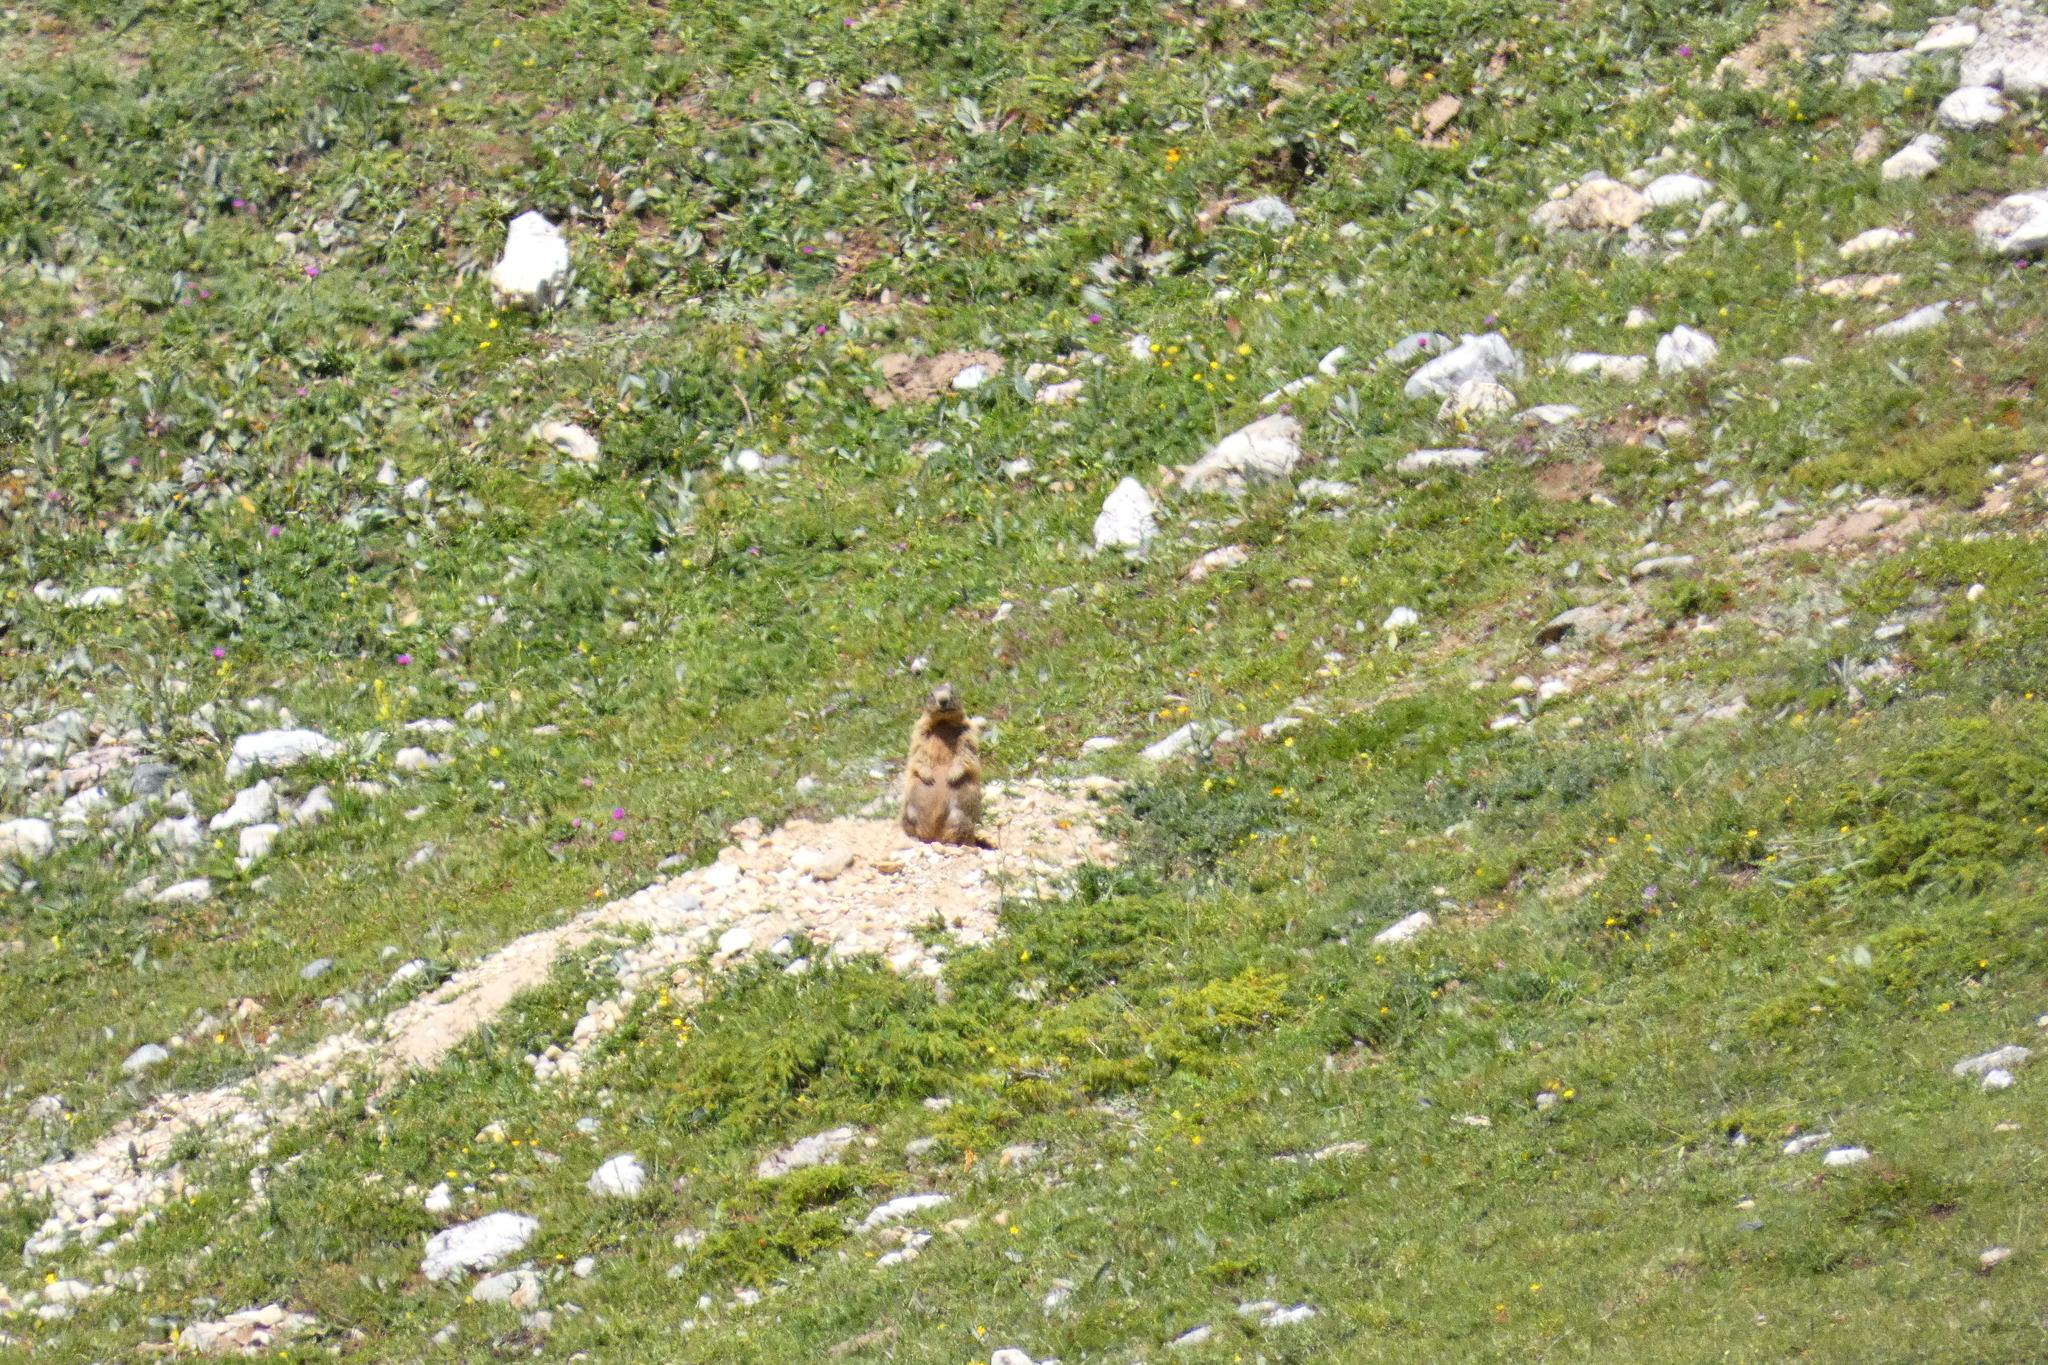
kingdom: Animalia
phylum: Chordata
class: Mammalia
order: Rodentia
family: Sciuridae
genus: Marmota
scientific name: Marmota marmota
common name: Alpine marmot
